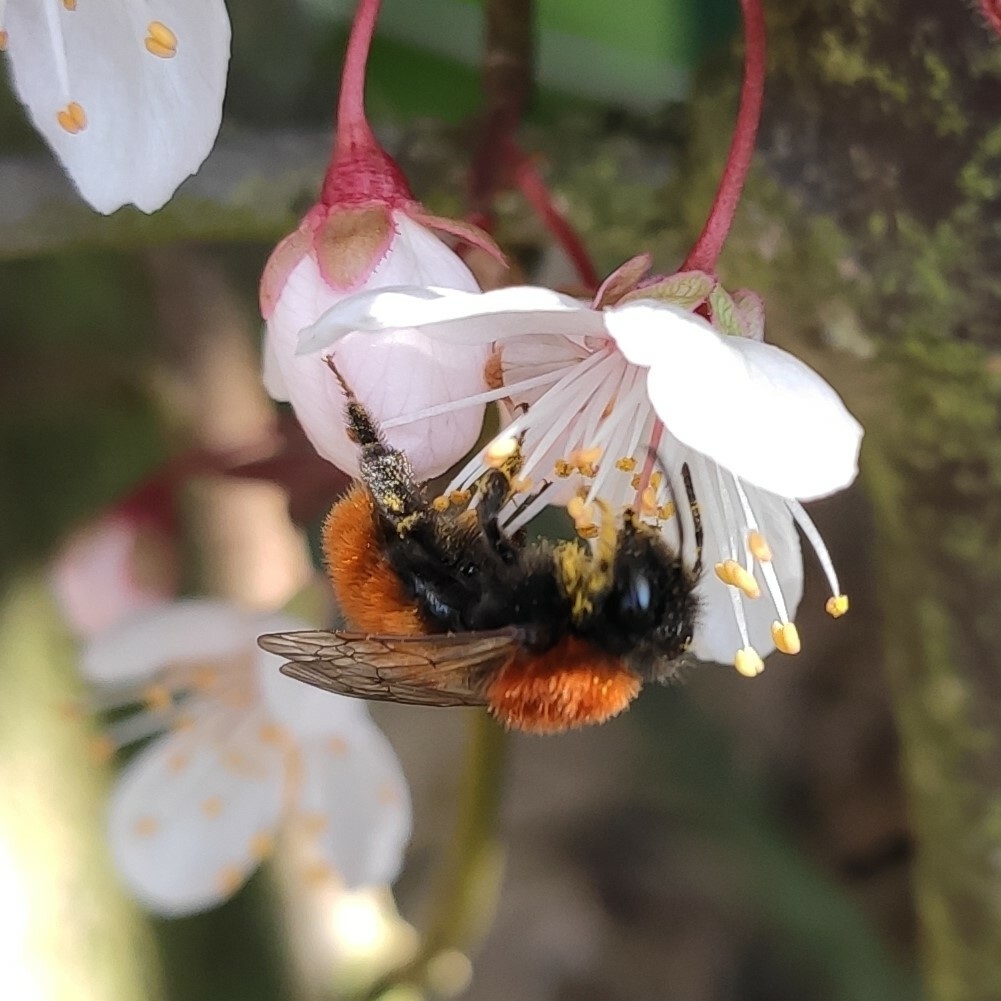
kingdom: Animalia
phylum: Arthropoda
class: Insecta
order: Hymenoptera
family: Andrenidae
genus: Andrena
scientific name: Andrena fulva
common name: Tawny mining bee
